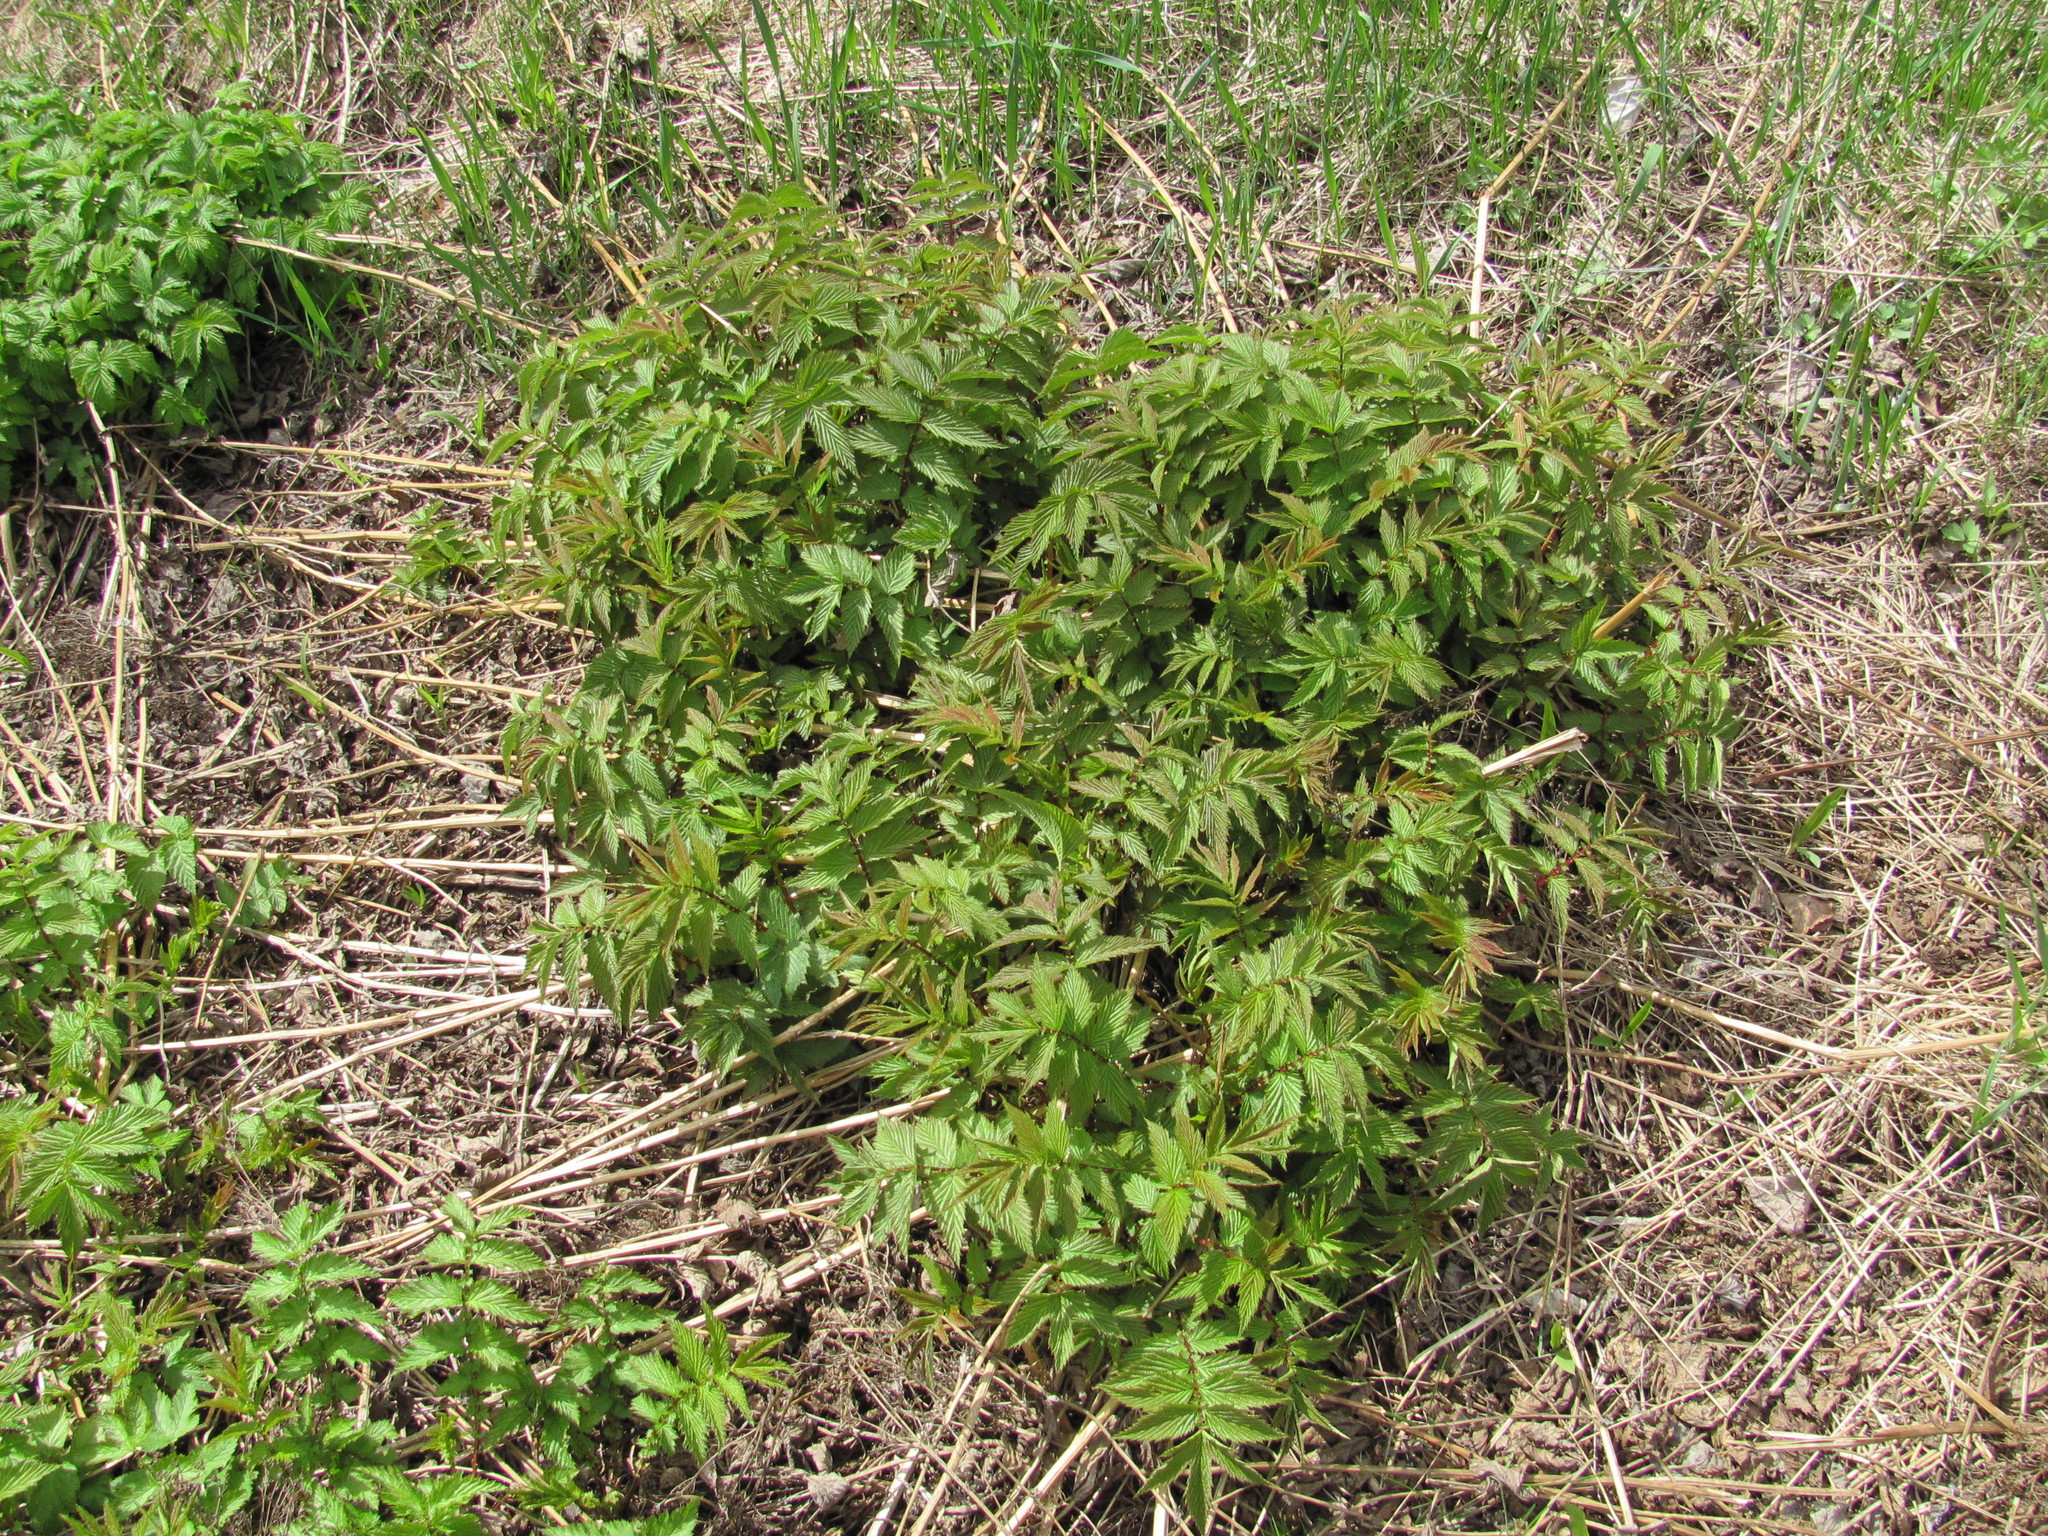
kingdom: Plantae
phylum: Tracheophyta
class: Magnoliopsida
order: Rosales
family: Rosaceae
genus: Filipendula
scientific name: Filipendula ulmaria
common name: Meadowsweet
